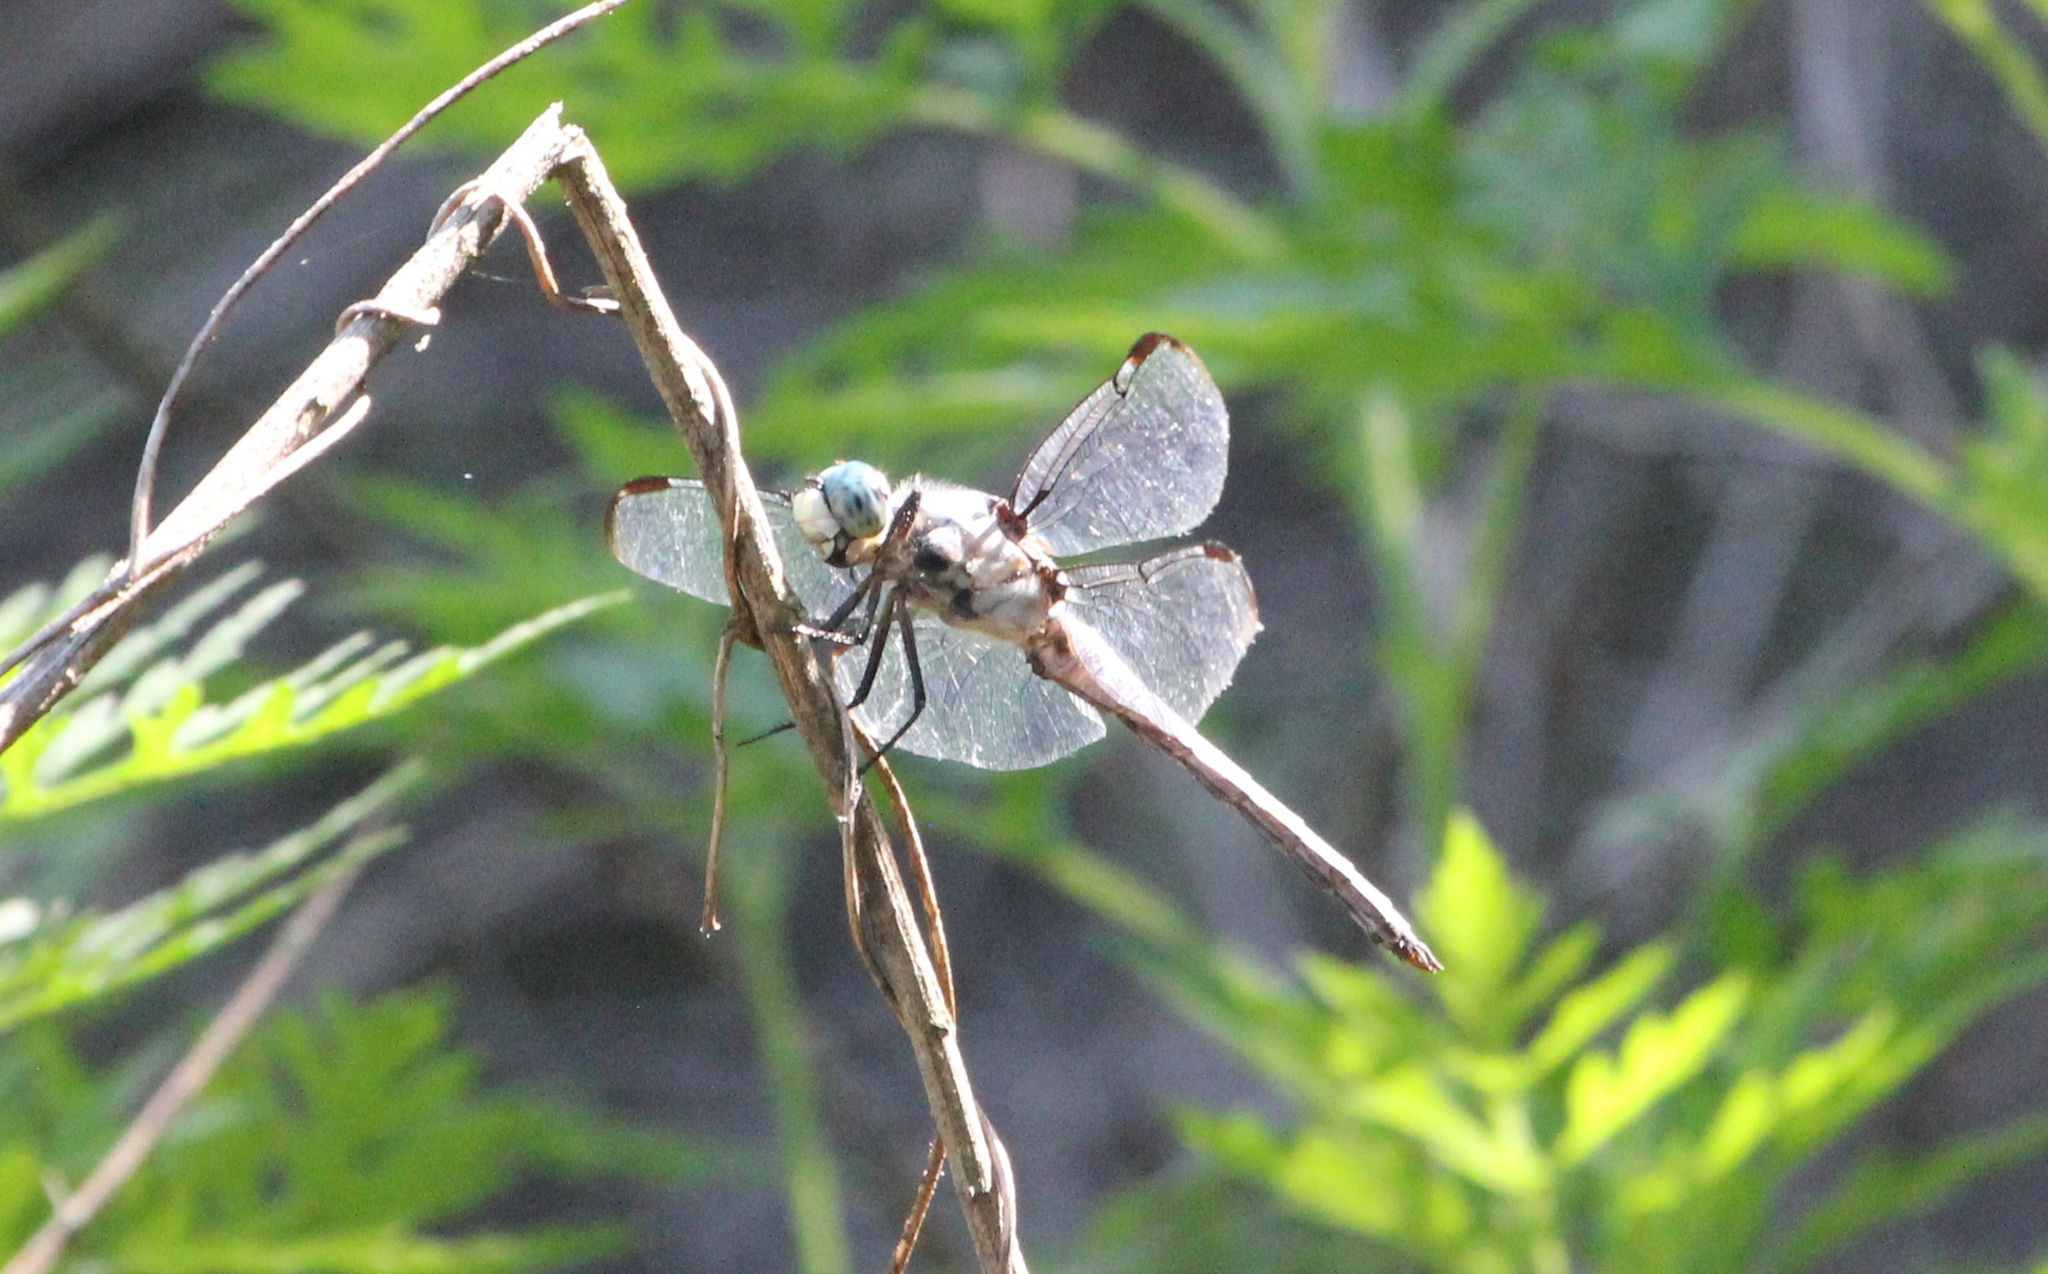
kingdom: Animalia
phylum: Arthropoda
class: Insecta
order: Odonata
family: Libellulidae
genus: Libellula
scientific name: Libellula vibrans
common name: Great blue skimmer
